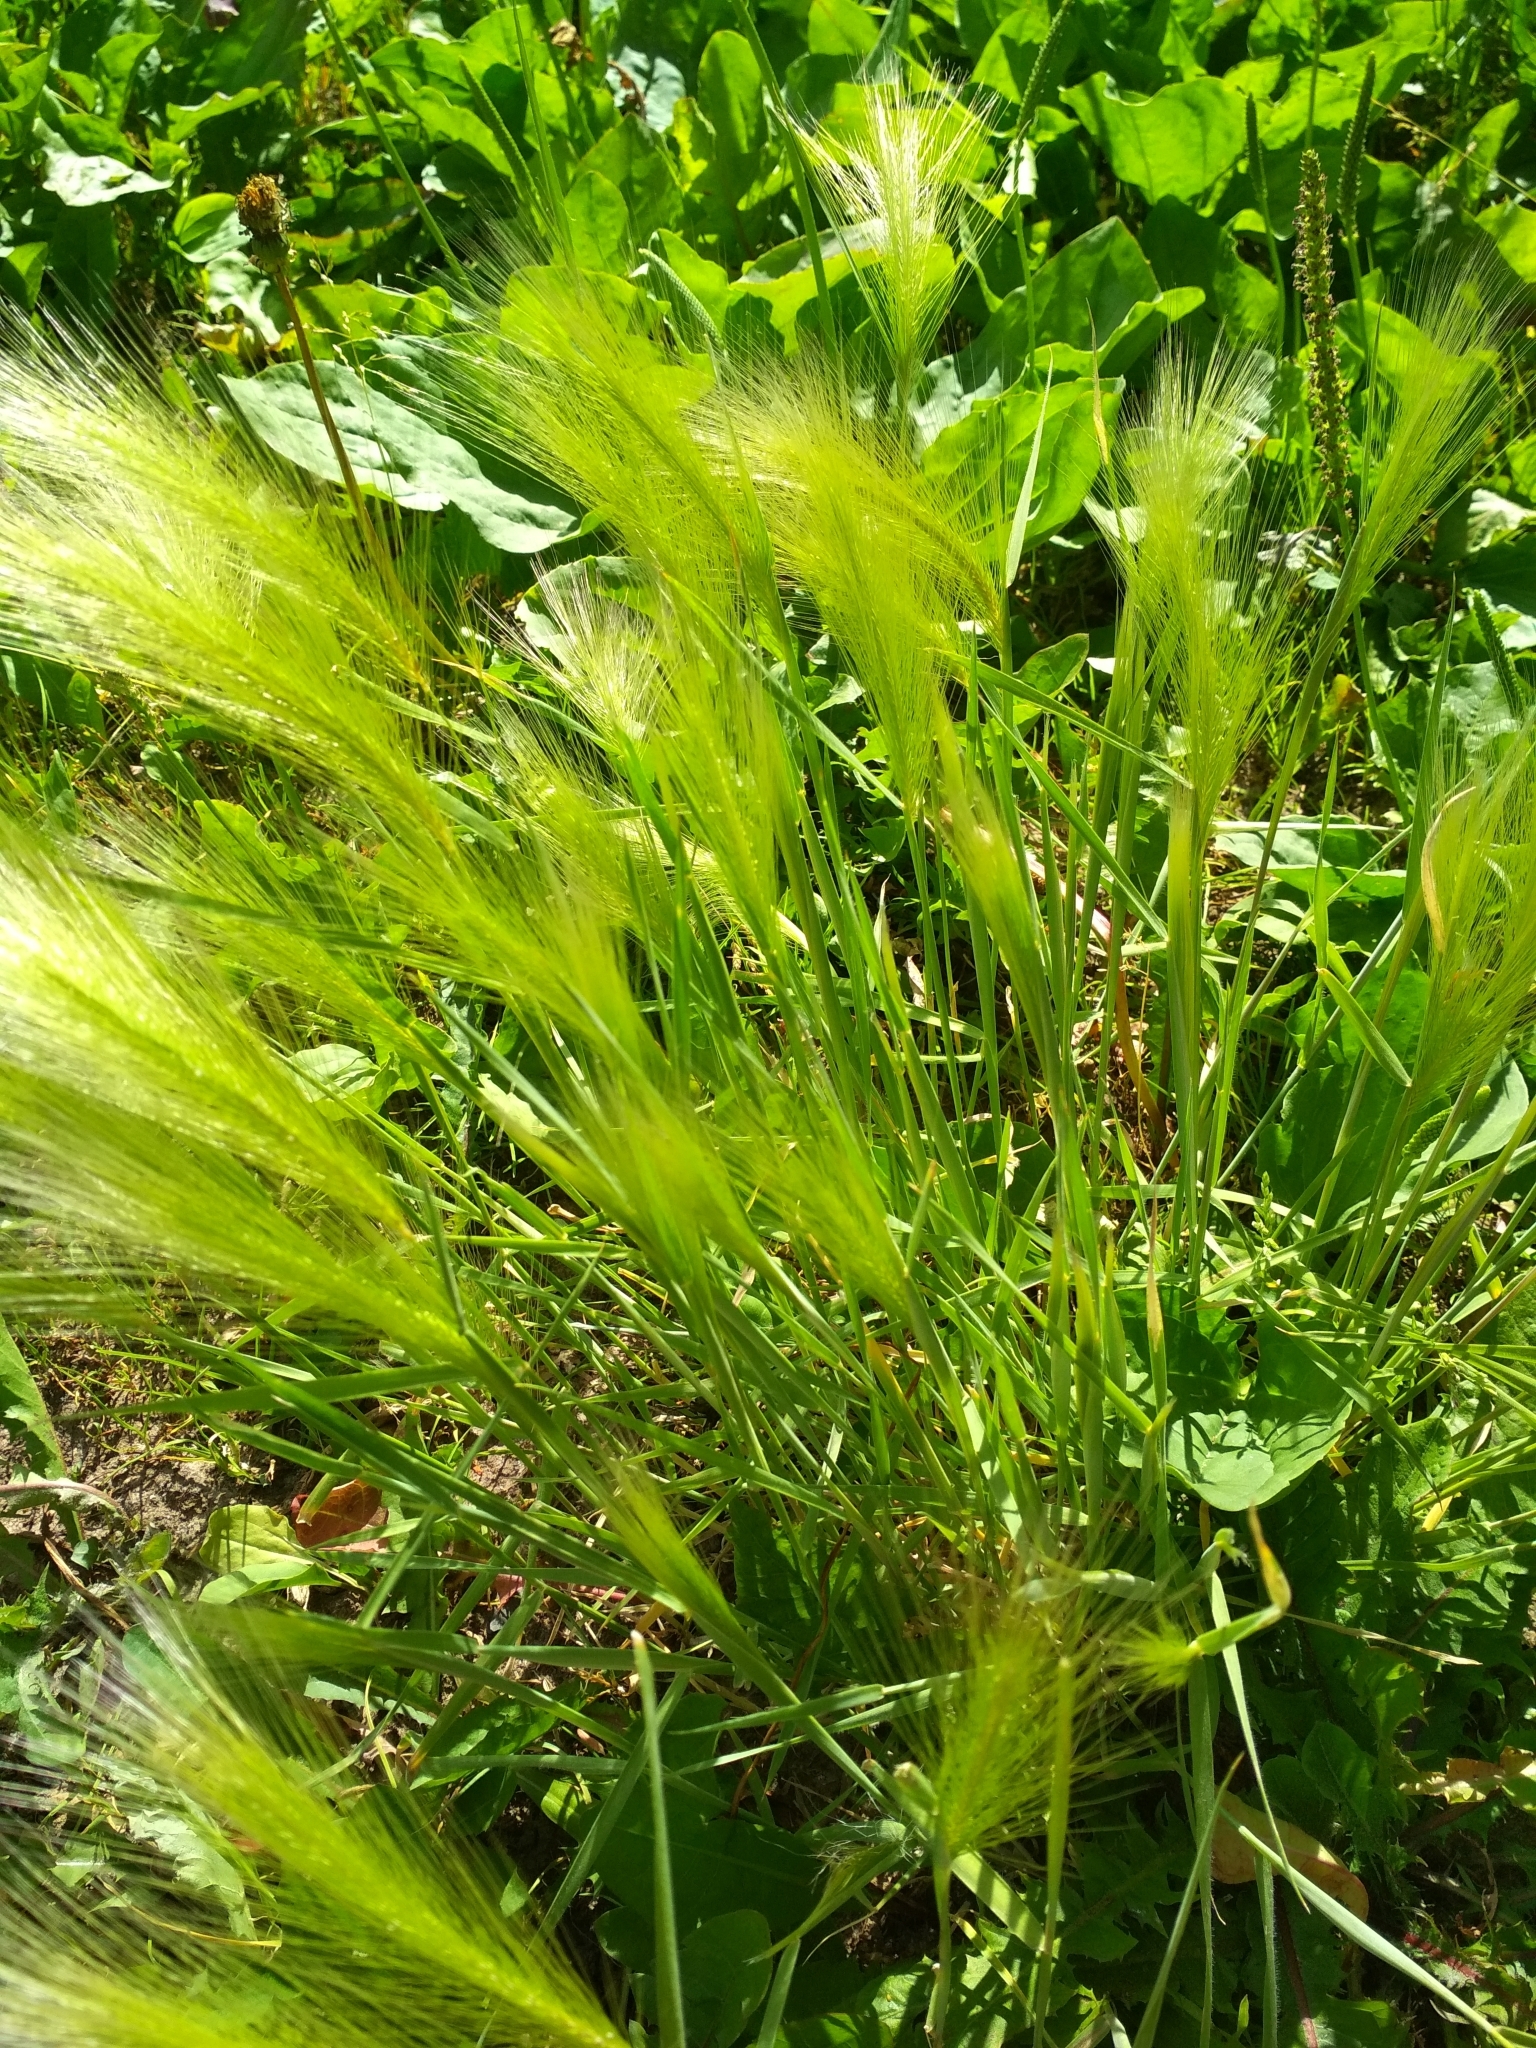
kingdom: Plantae
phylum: Tracheophyta
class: Liliopsida
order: Poales
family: Poaceae
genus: Hordeum
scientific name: Hordeum jubatum
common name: Foxtail barley
